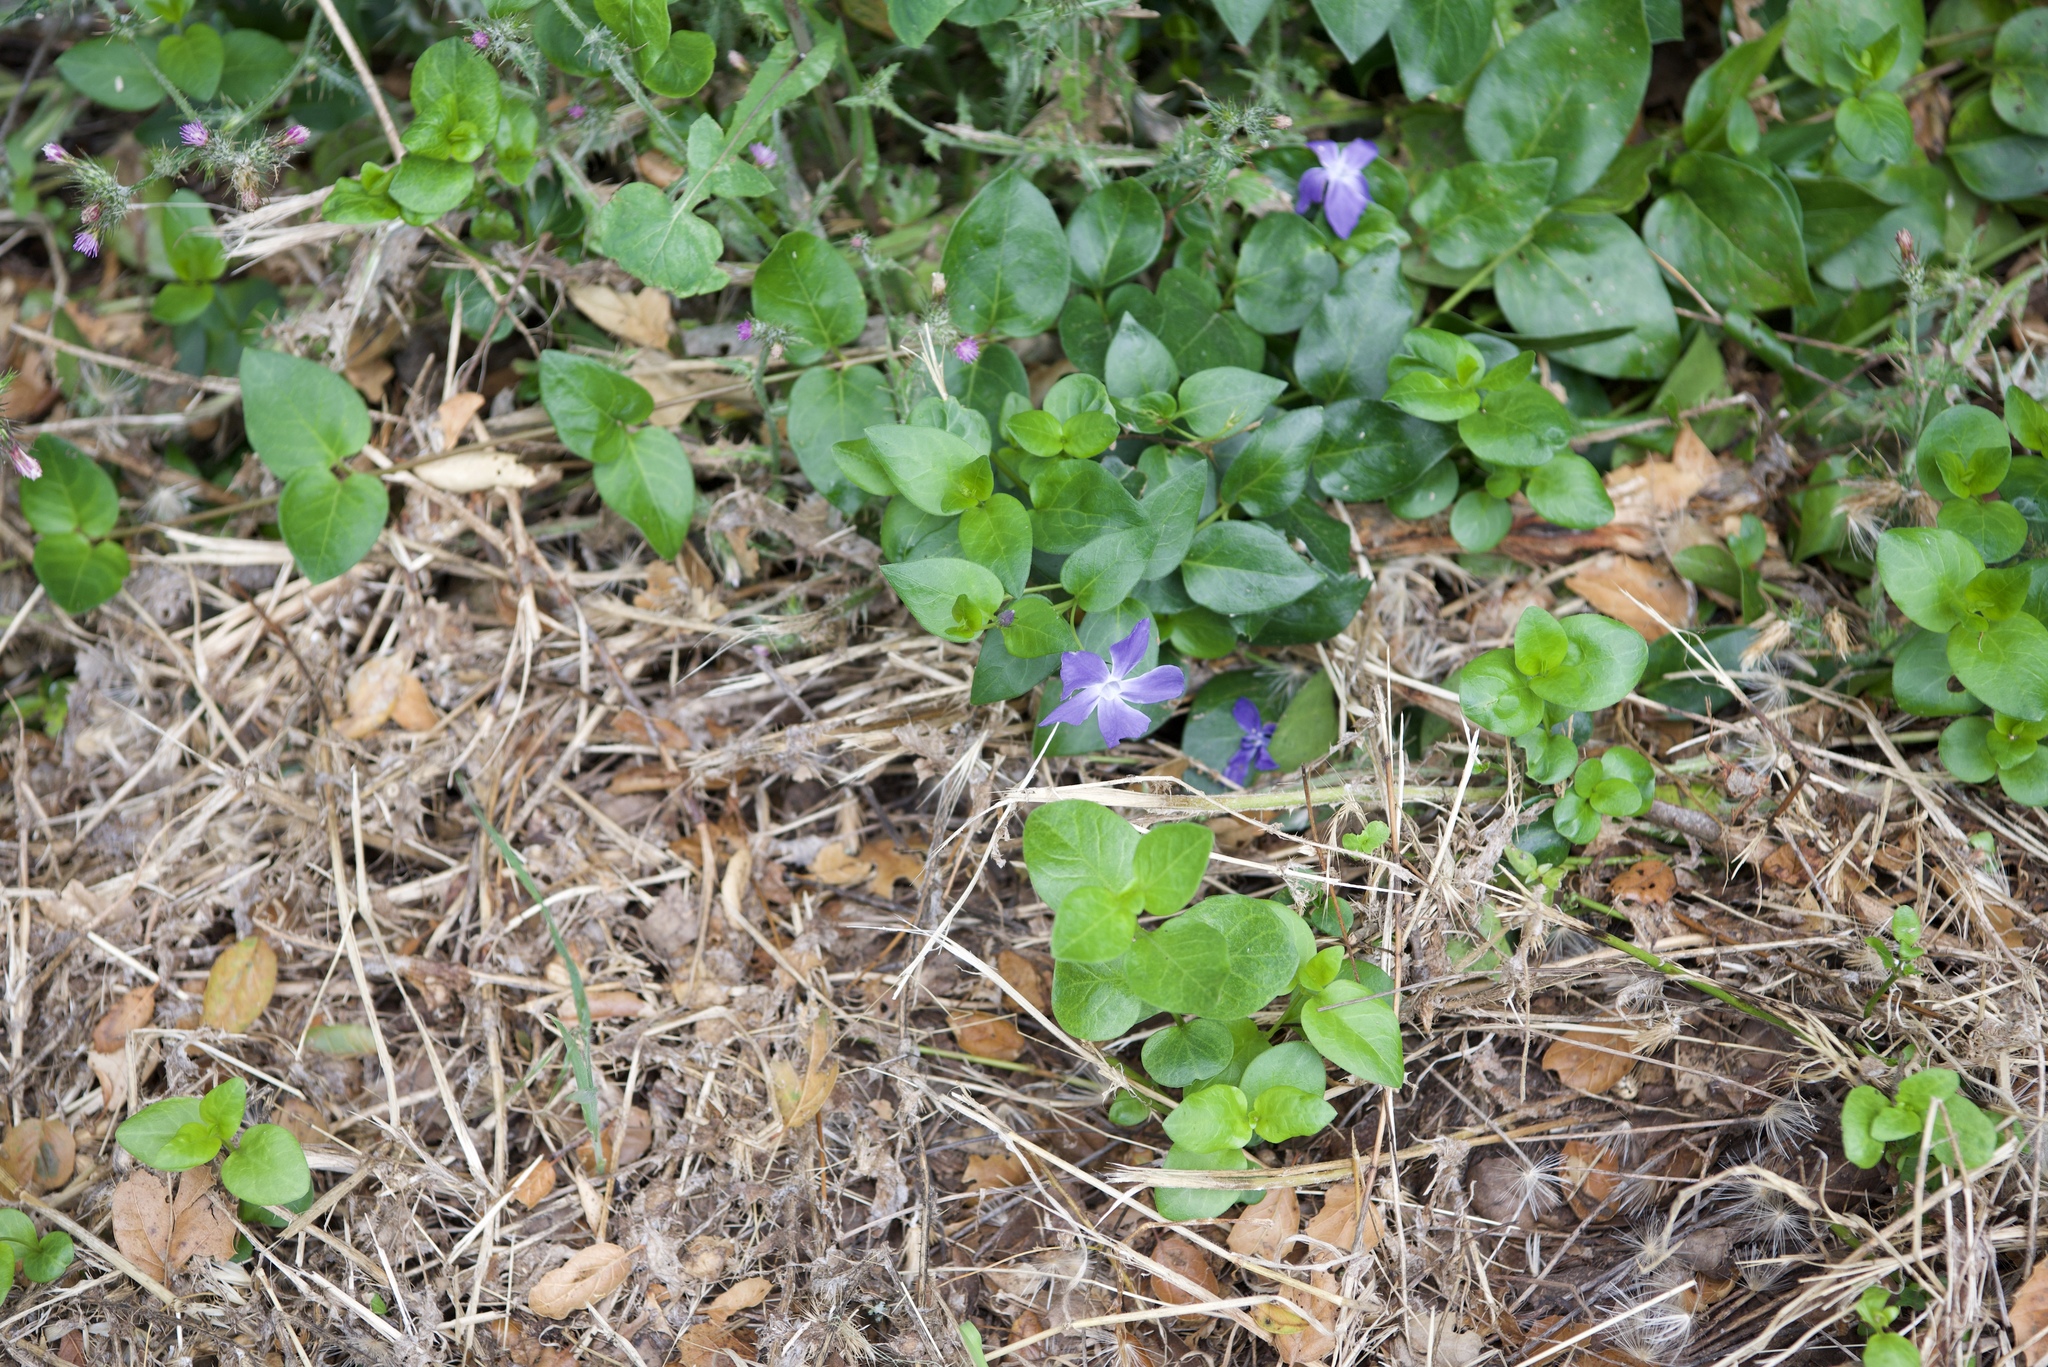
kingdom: Plantae
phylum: Tracheophyta
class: Magnoliopsida
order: Gentianales
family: Apocynaceae
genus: Vinca
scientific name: Vinca major
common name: Greater periwinkle
